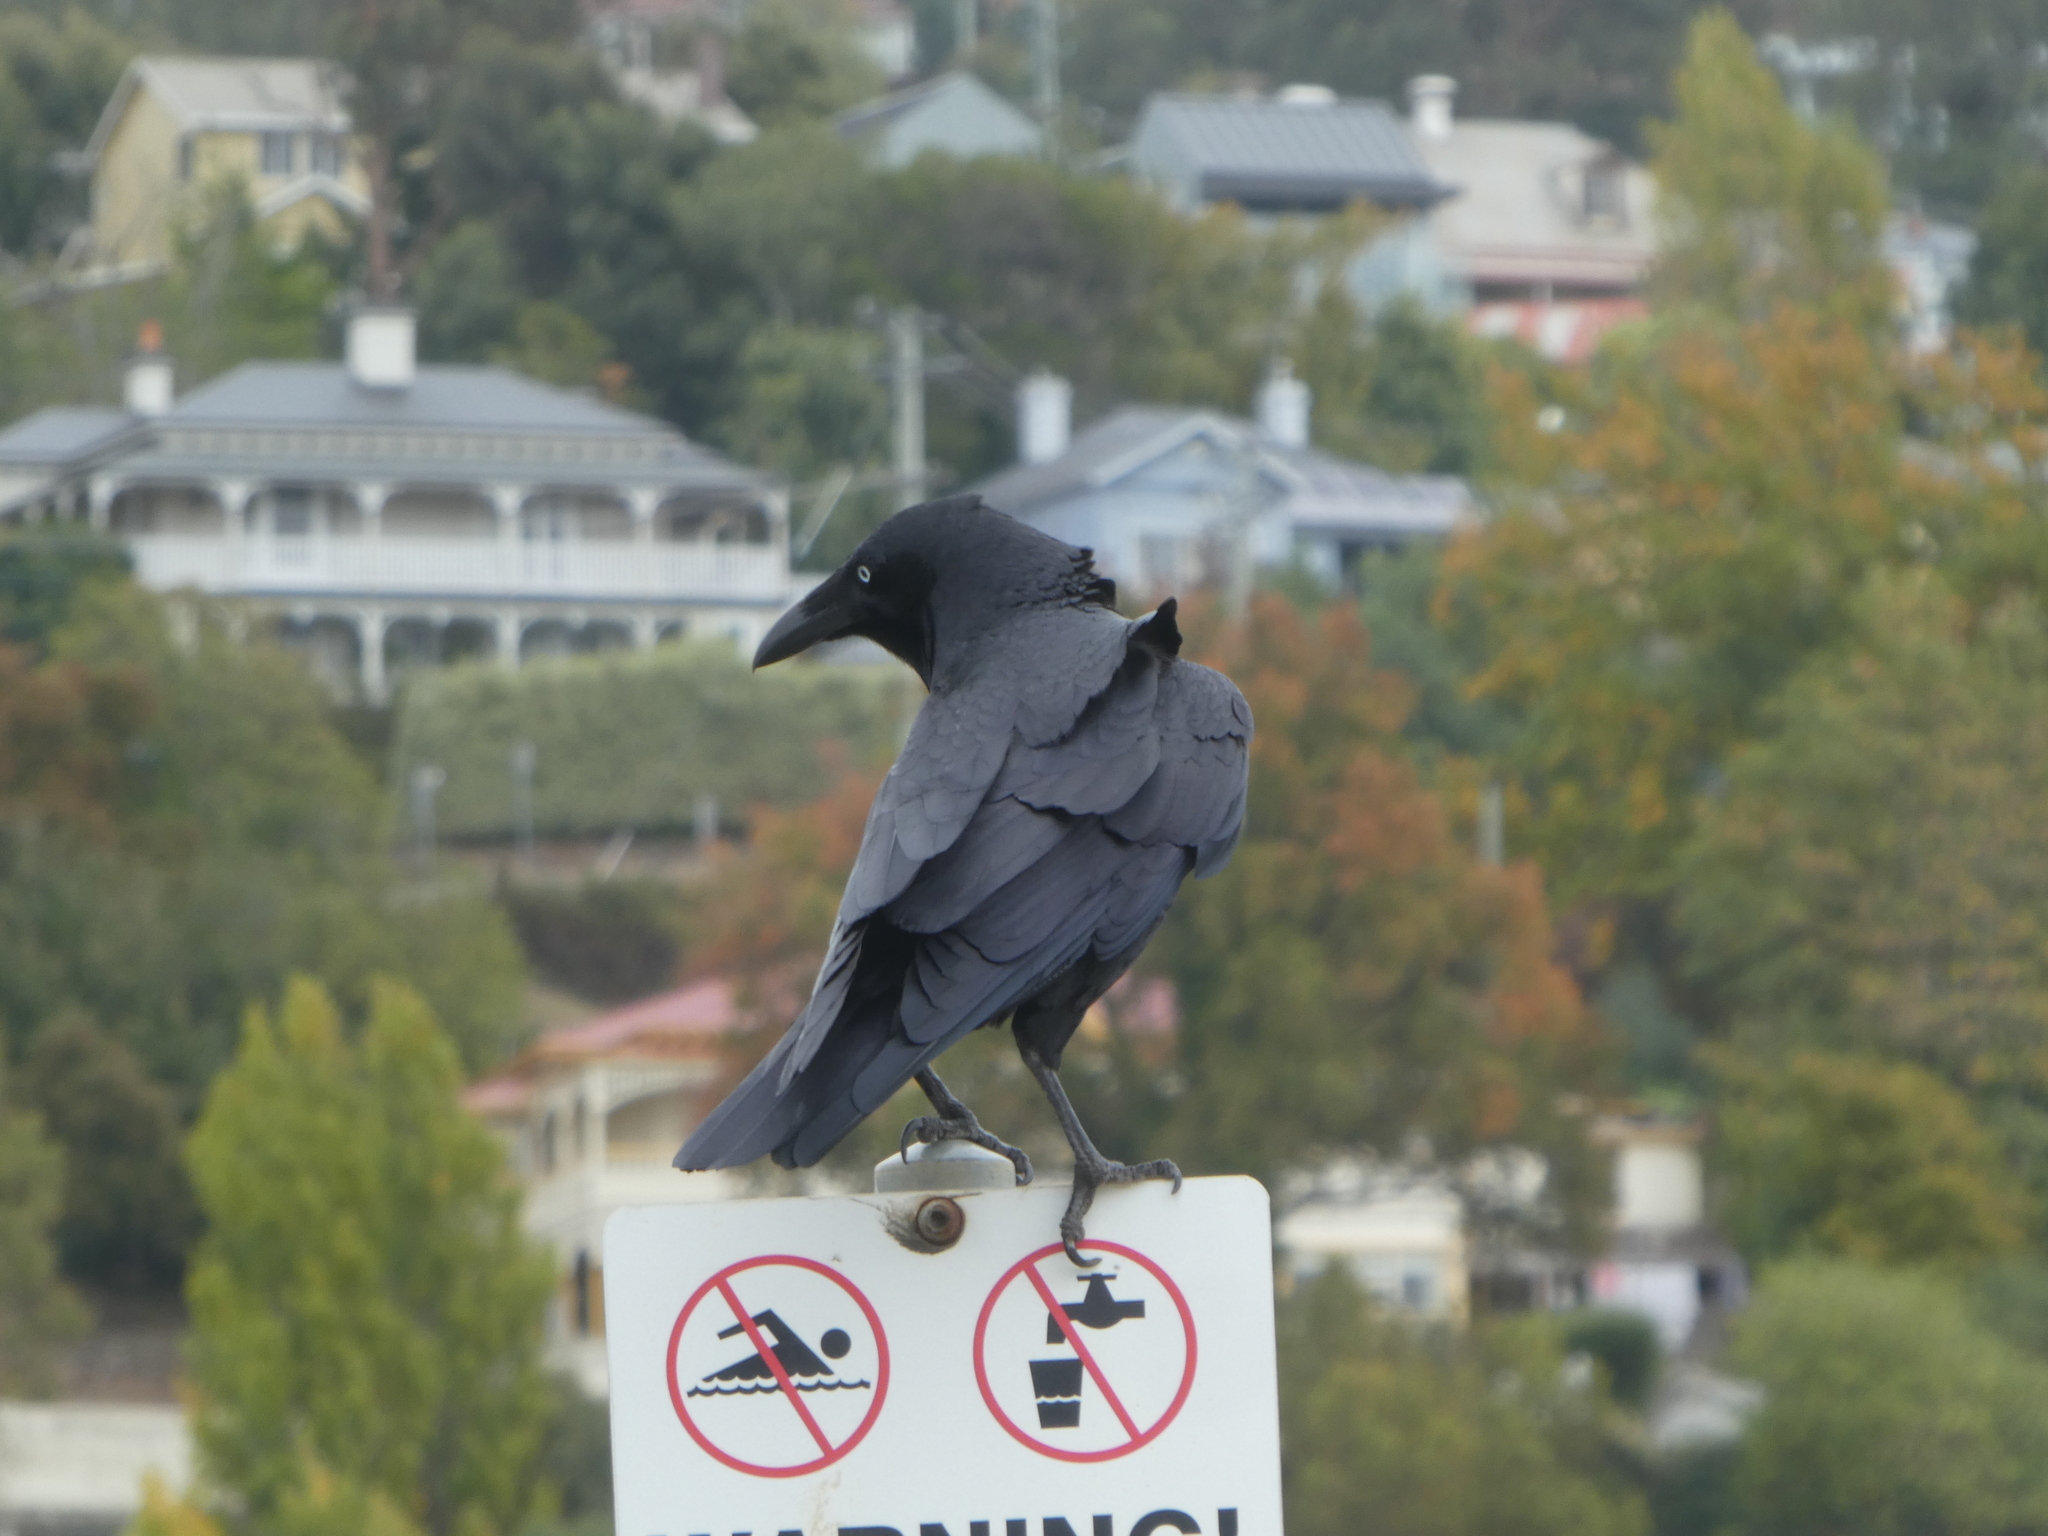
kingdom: Animalia
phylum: Chordata
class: Aves
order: Passeriformes
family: Corvidae
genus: Corvus
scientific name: Corvus tasmanicus
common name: Forest raven
